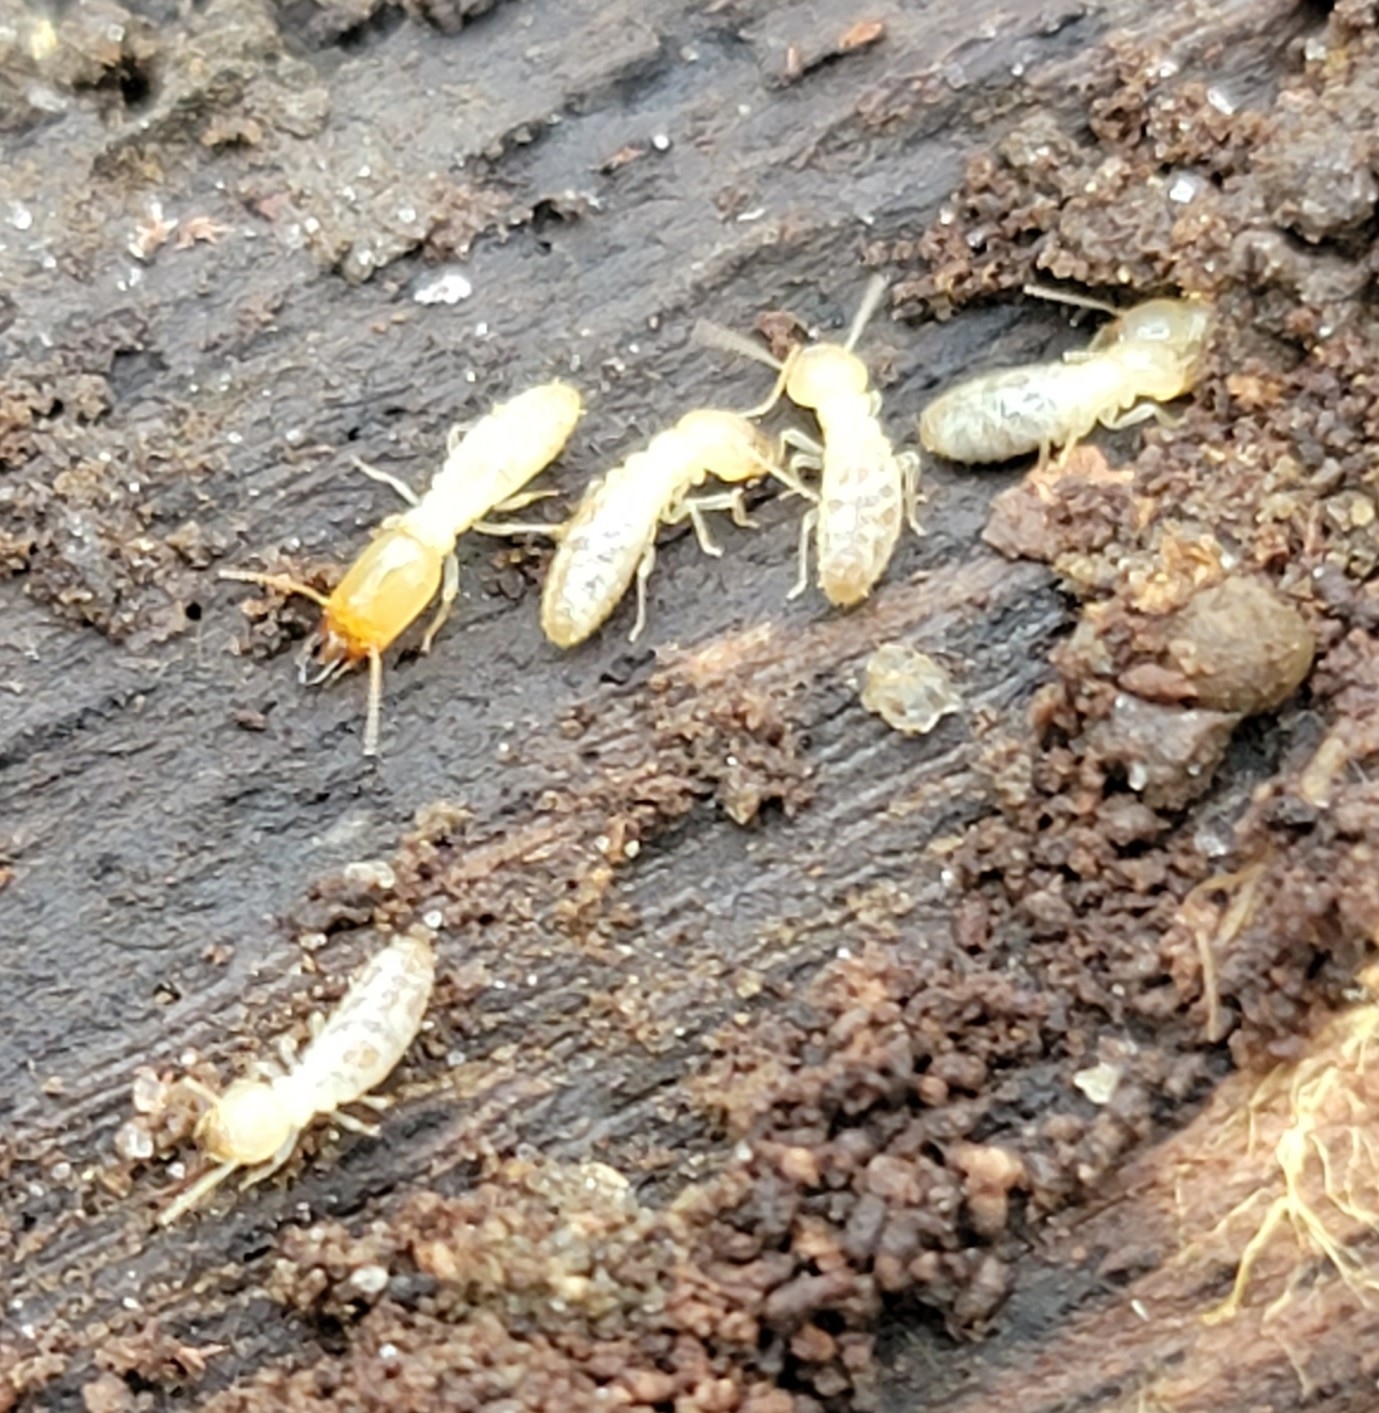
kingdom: Animalia
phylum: Arthropoda
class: Insecta
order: Blattodea
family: Rhinotermitidae
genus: Reticulitermes
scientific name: Reticulitermes flavipes
